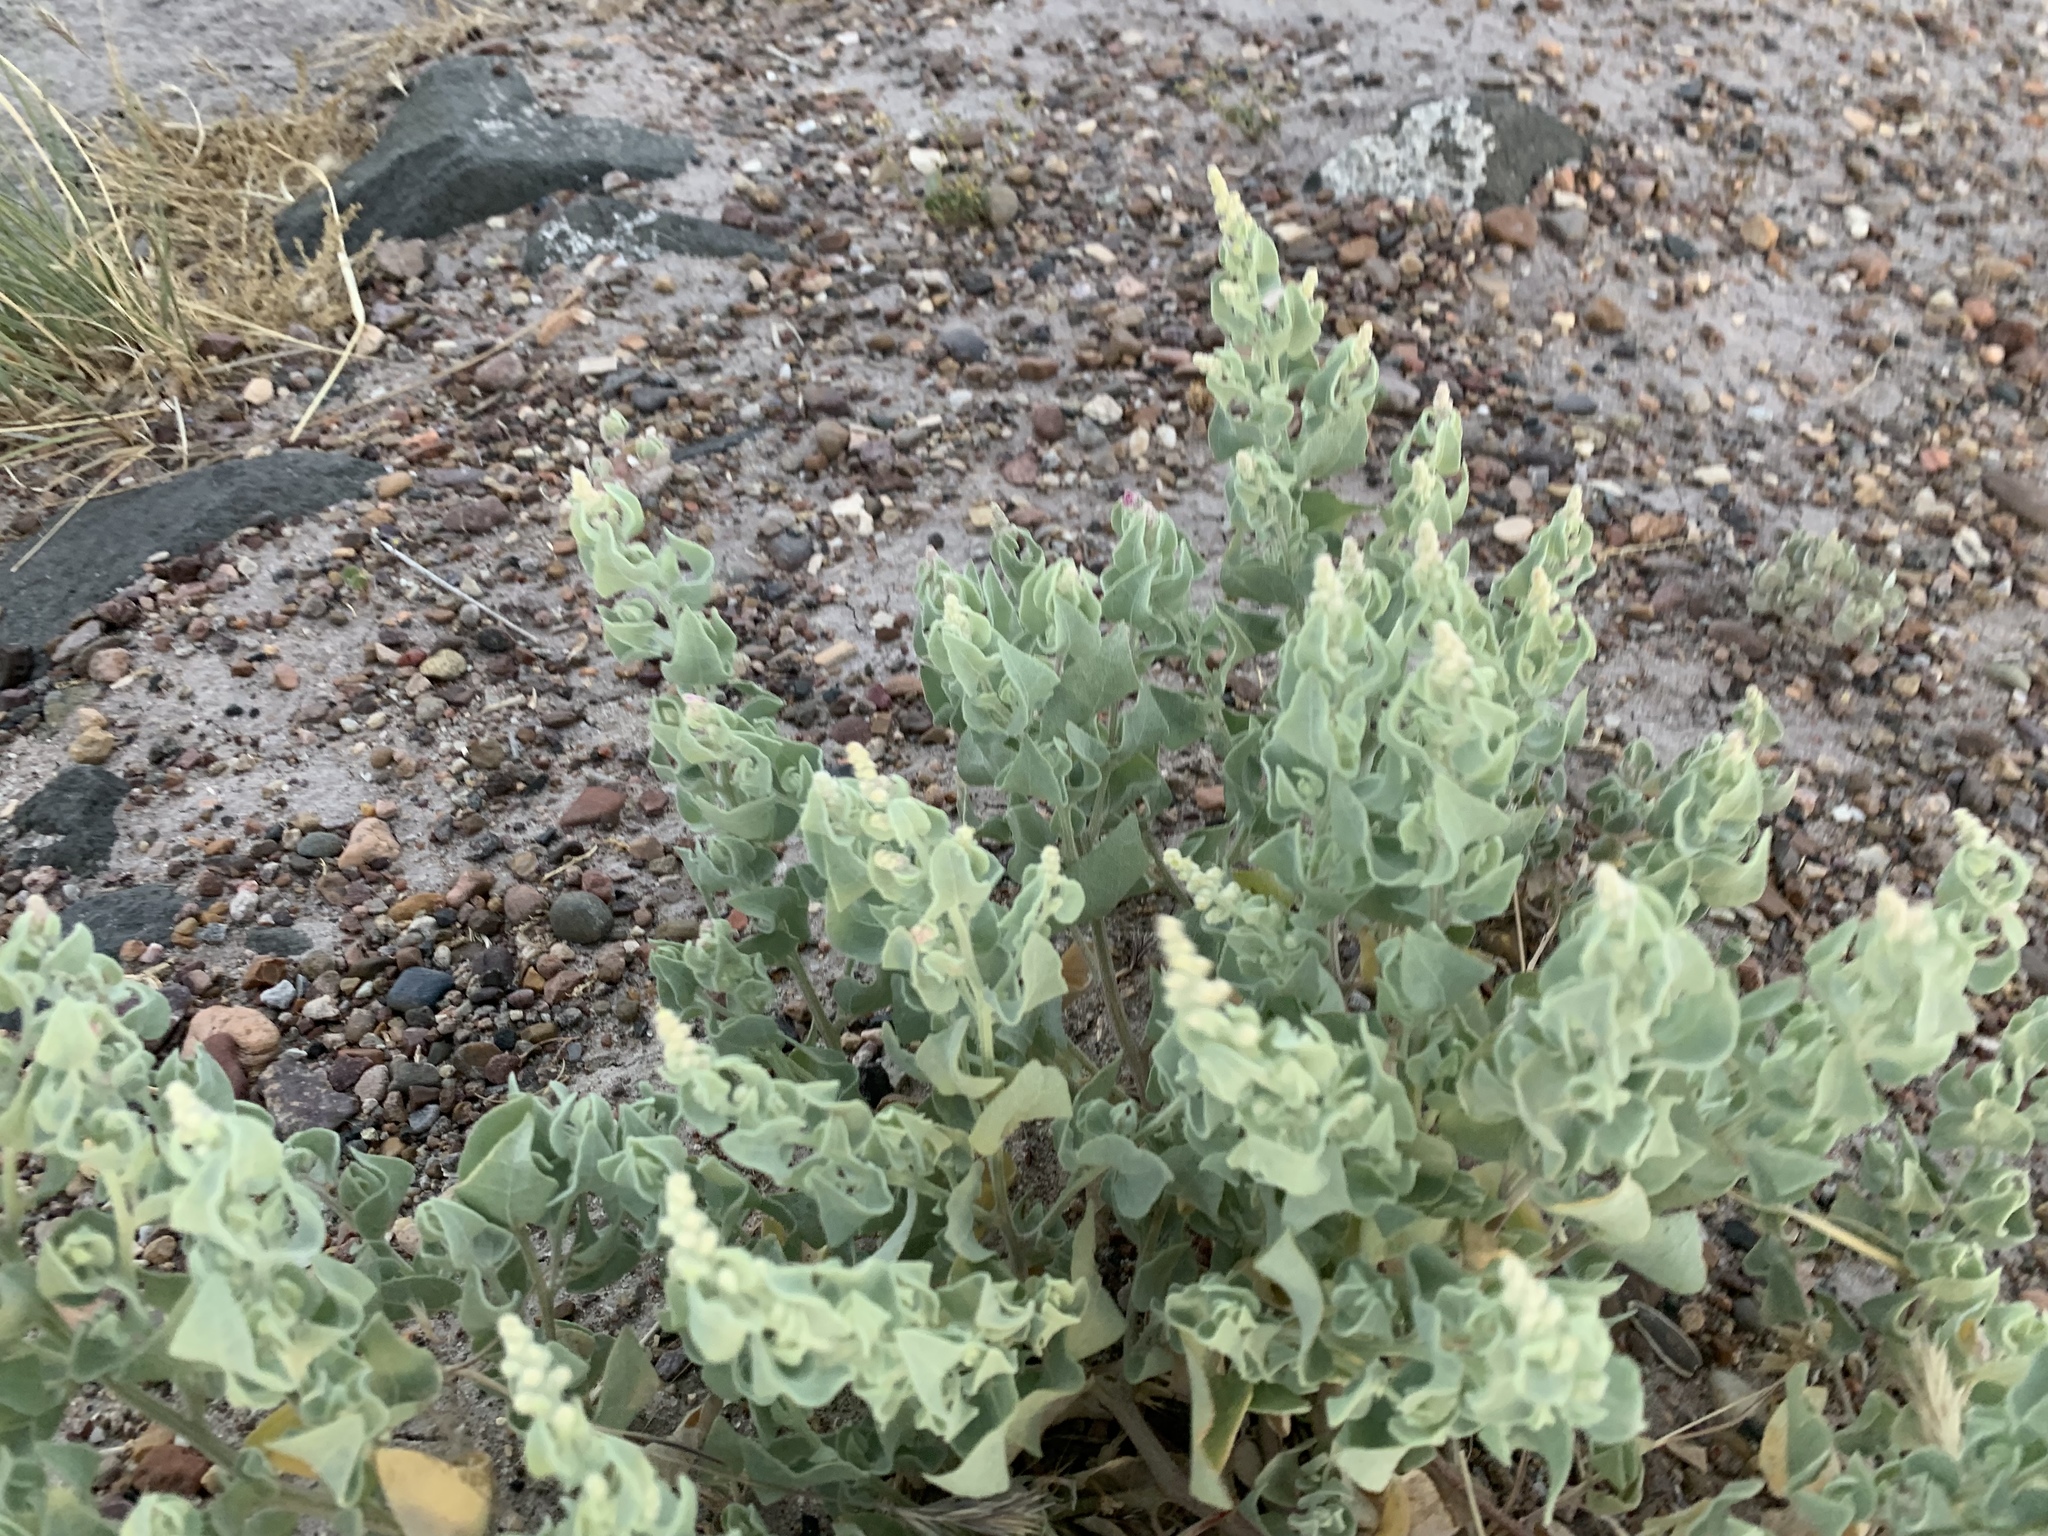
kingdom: Plantae
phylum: Tracheophyta
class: Magnoliopsida
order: Caryophyllales
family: Amaranthaceae
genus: Atriplex
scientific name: Atriplex saccaria
